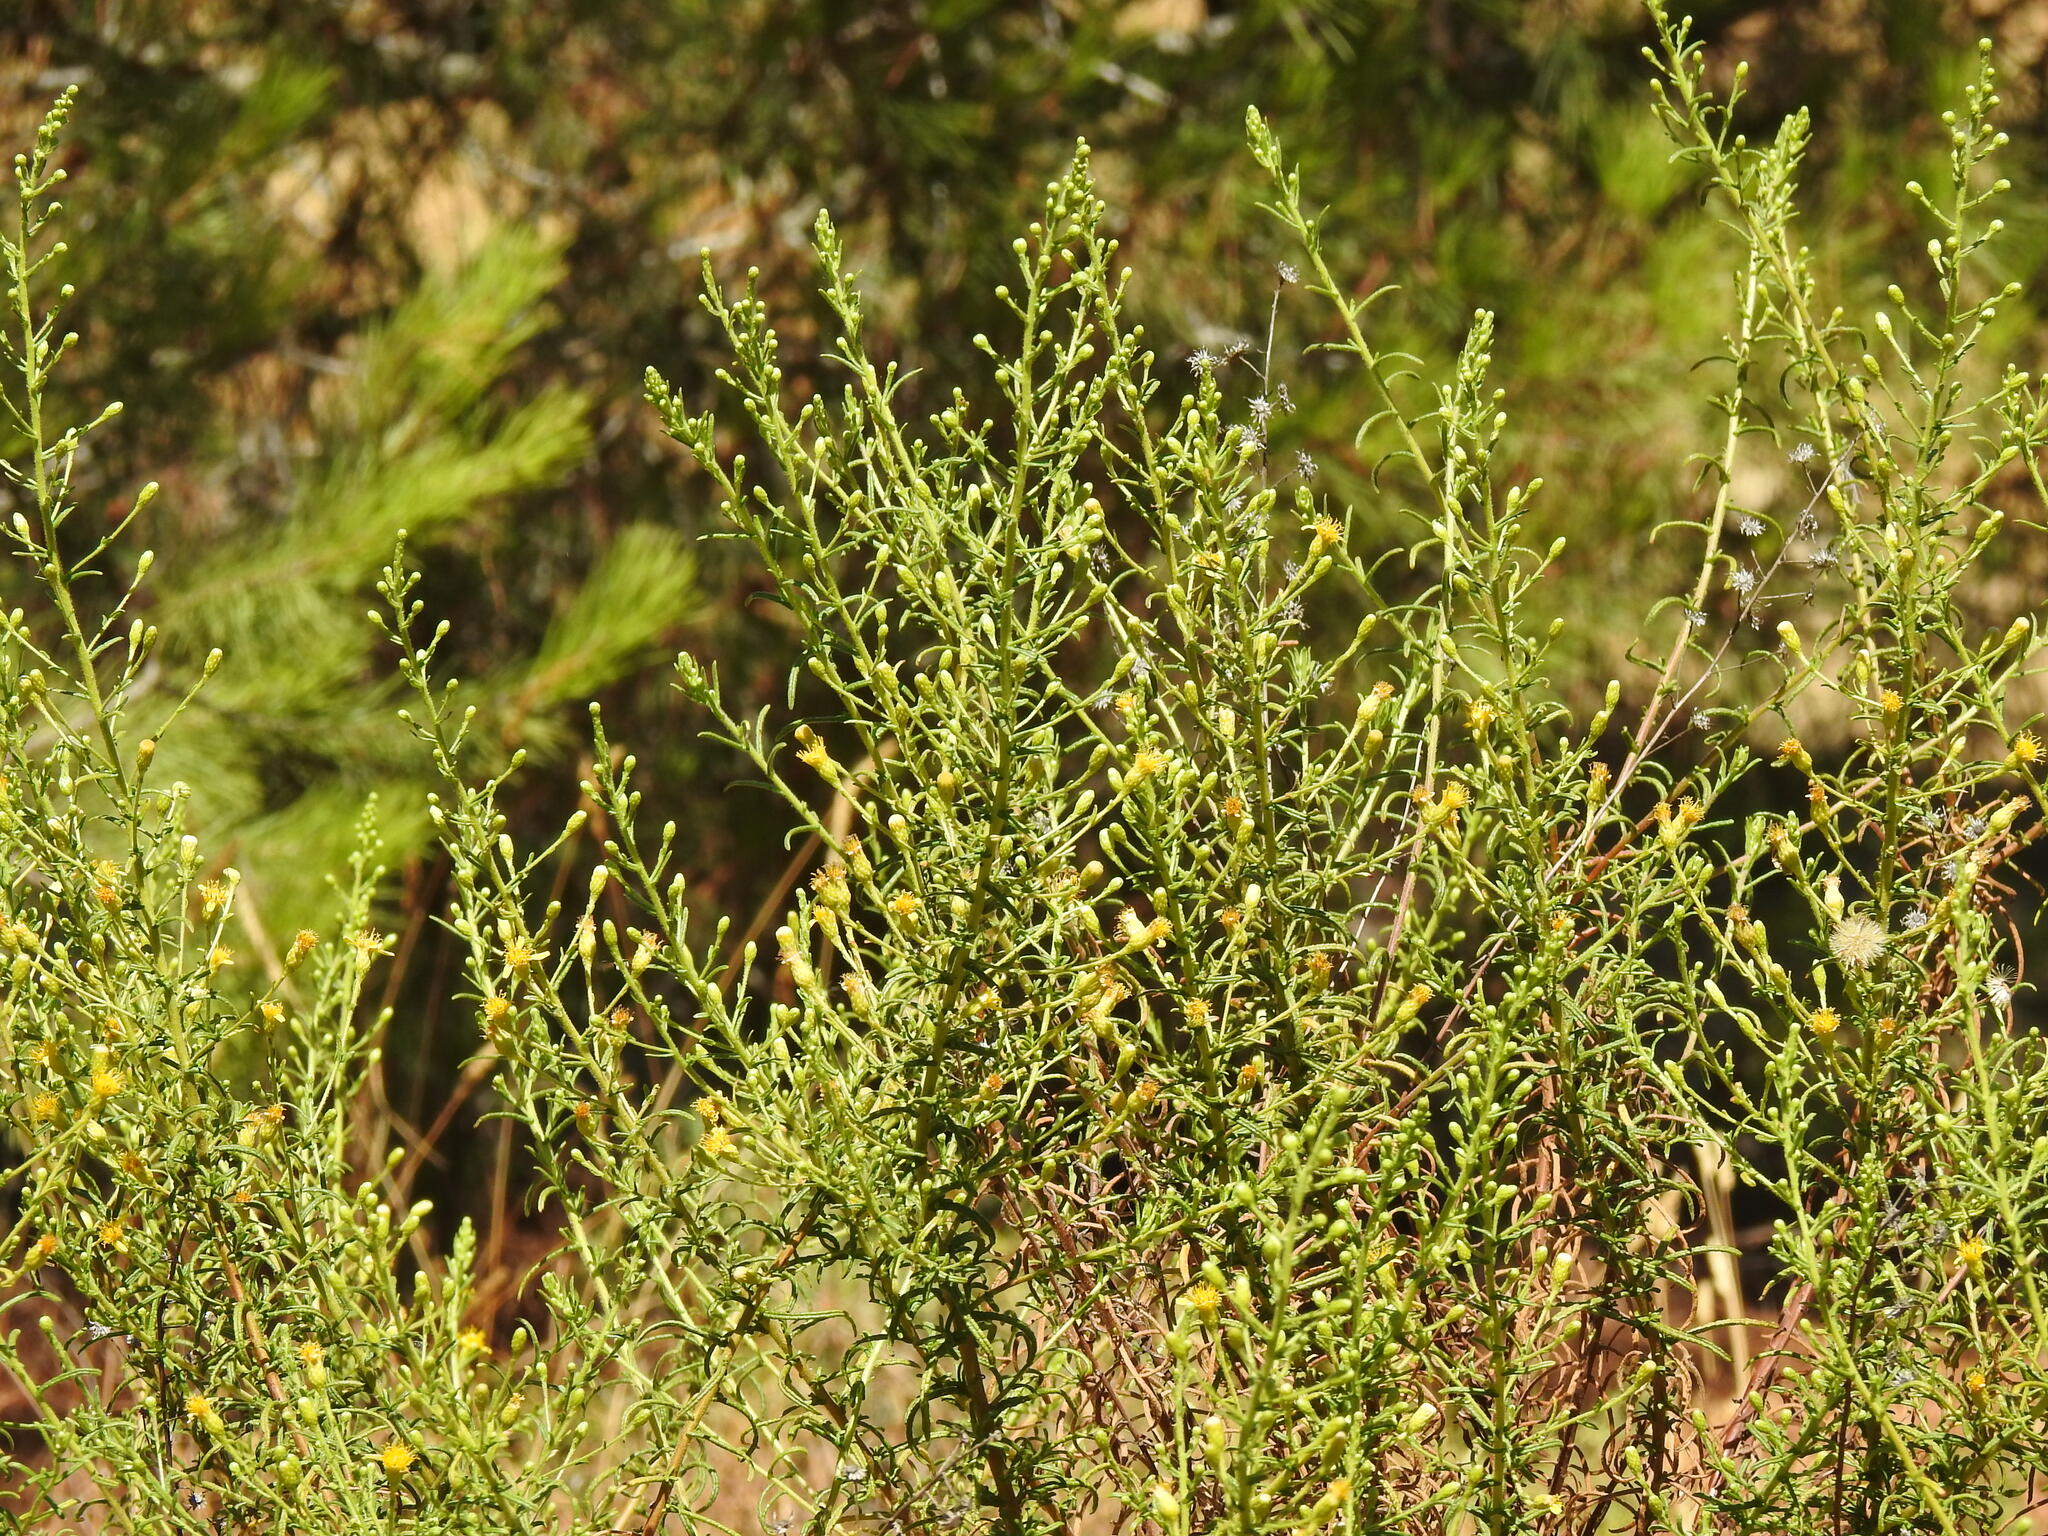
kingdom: Plantae
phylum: Tracheophyta
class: Magnoliopsida
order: Asterales
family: Asteraceae
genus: Dittrichia
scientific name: Dittrichia viscosa
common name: Woody fleabane
